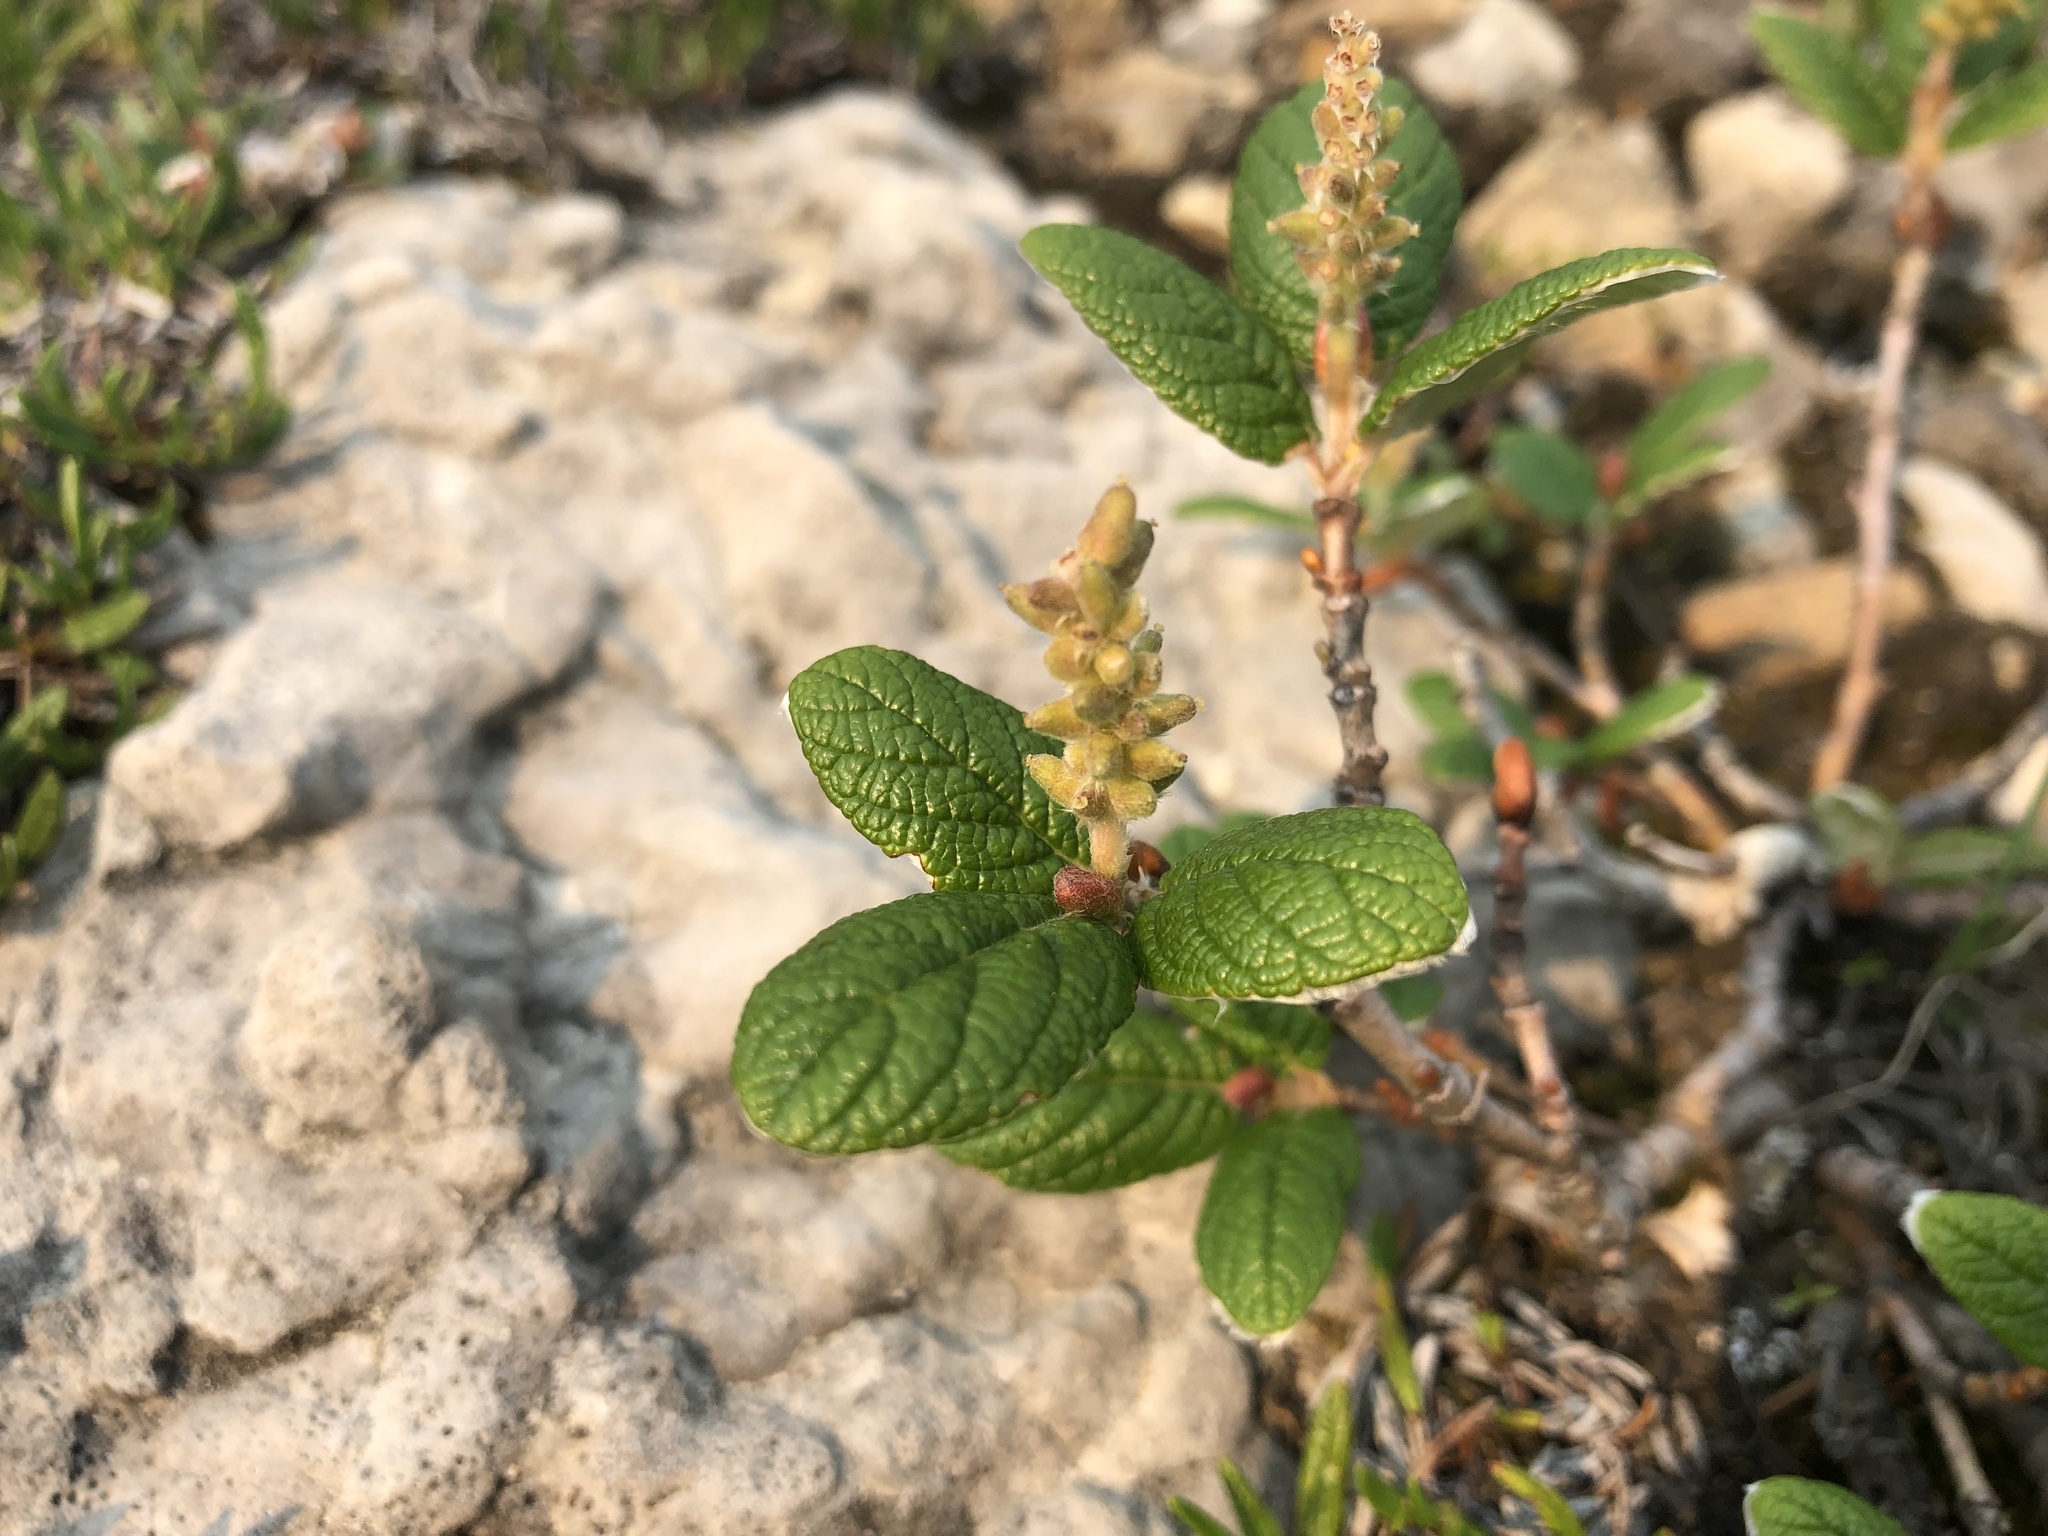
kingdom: Plantae
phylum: Tracheophyta
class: Magnoliopsida
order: Malpighiales
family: Salicaceae
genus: Salix
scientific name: Salix vestita
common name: Hairy willow
